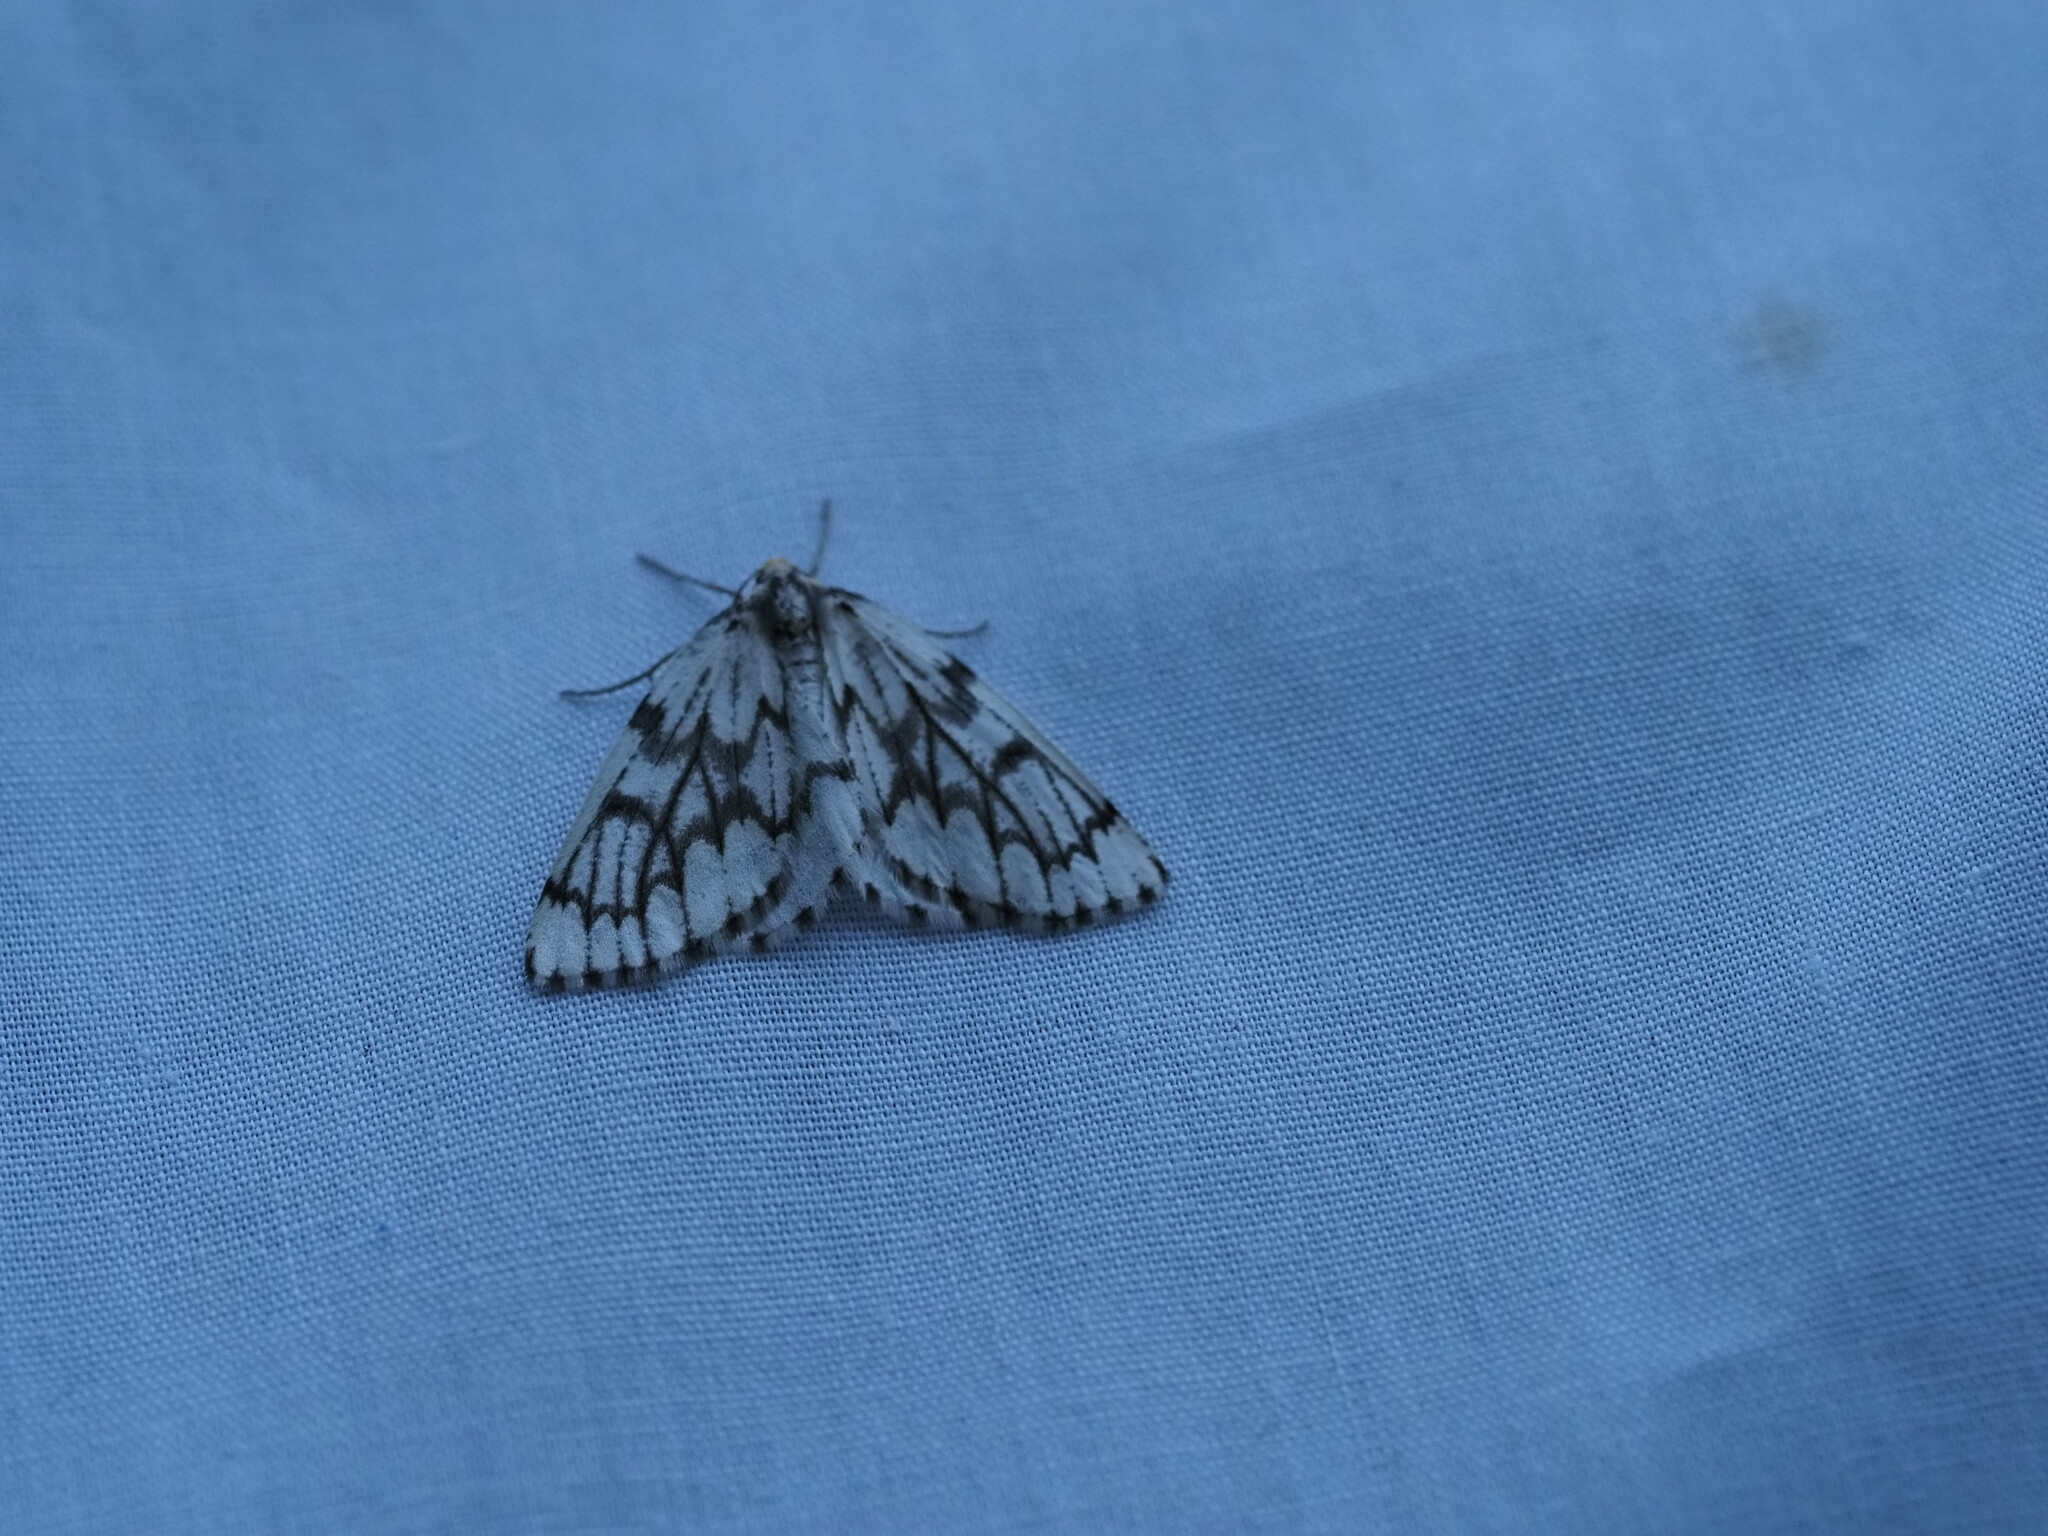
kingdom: Animalia
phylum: Arthropoda
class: Insecta
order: Lepidoptera
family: Geometridae
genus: Nepytia
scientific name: Nepytia phantasmaria
